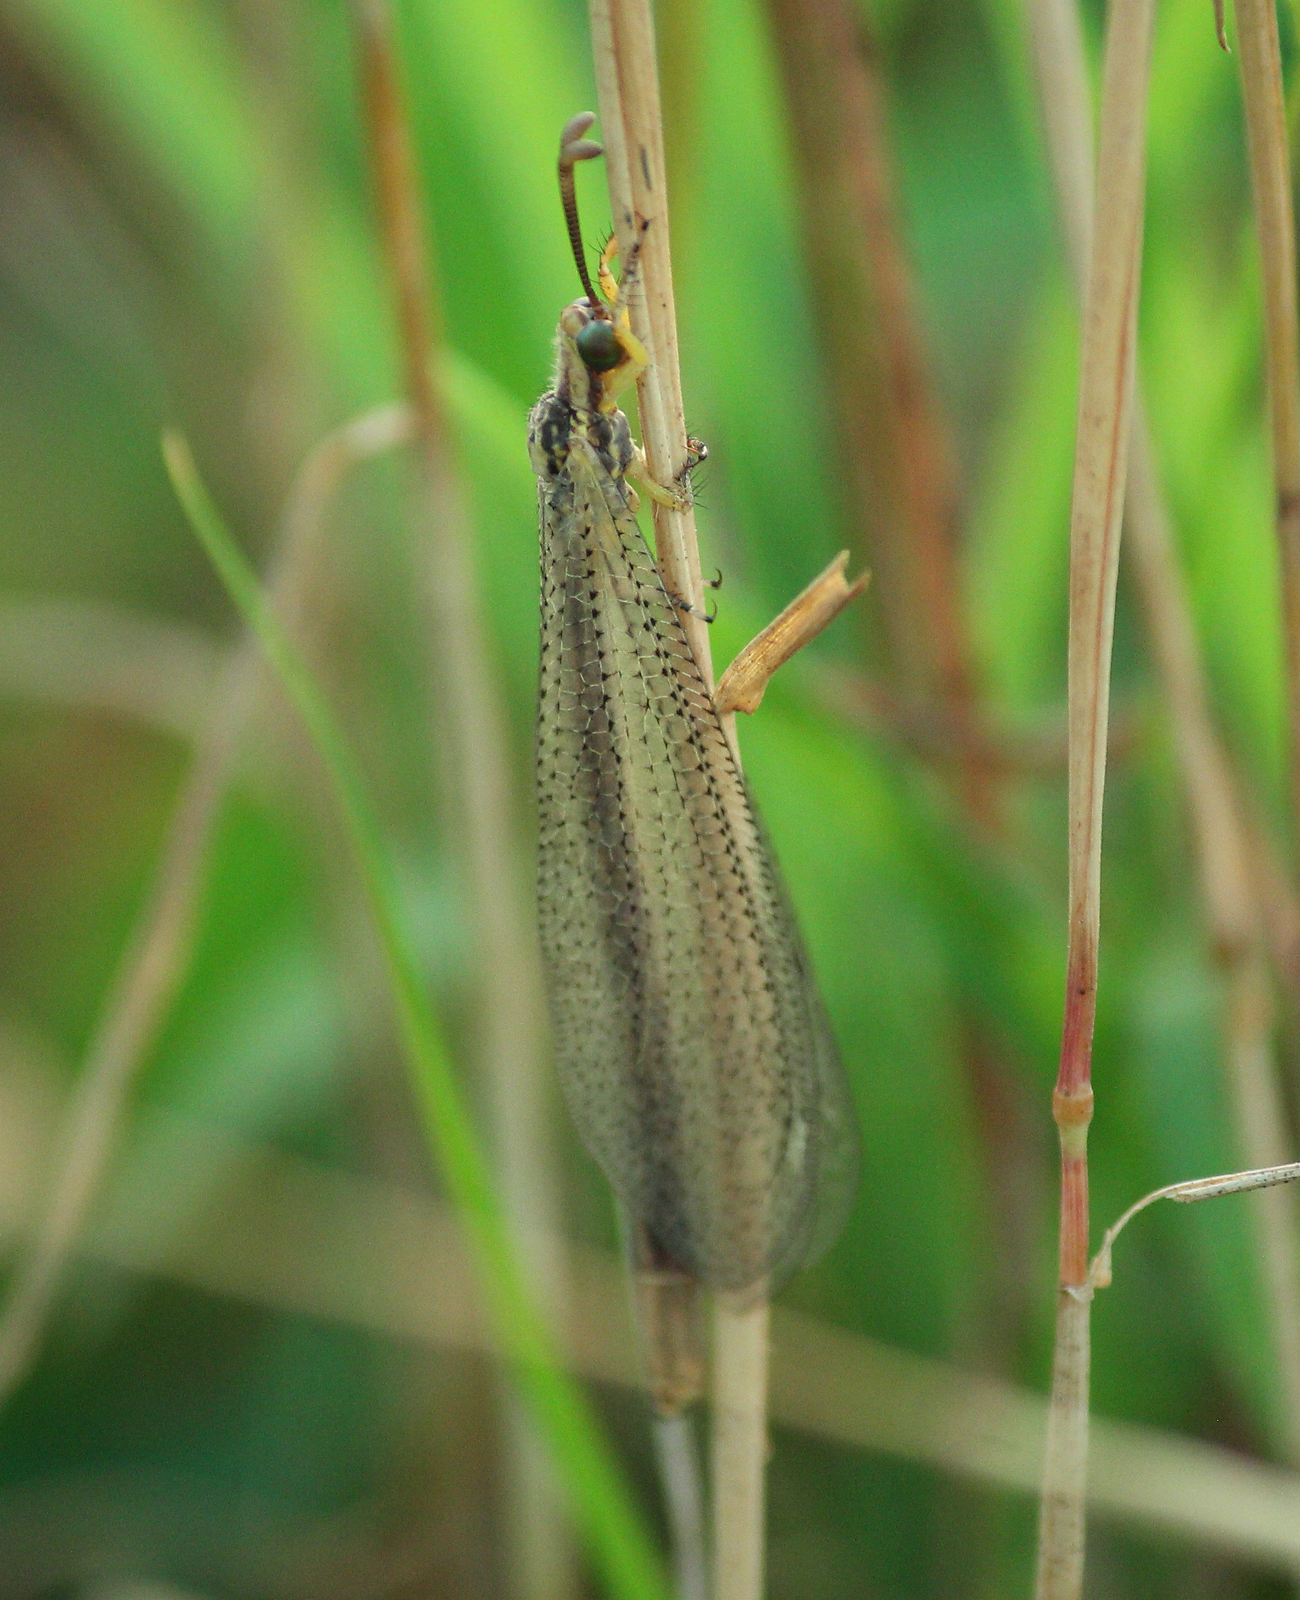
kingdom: Animalia
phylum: Arthropoda
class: Insecta
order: Neuroptera
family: Myrmeleontidae
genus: Brachynemurus
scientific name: Brachynemurus abdominalis
